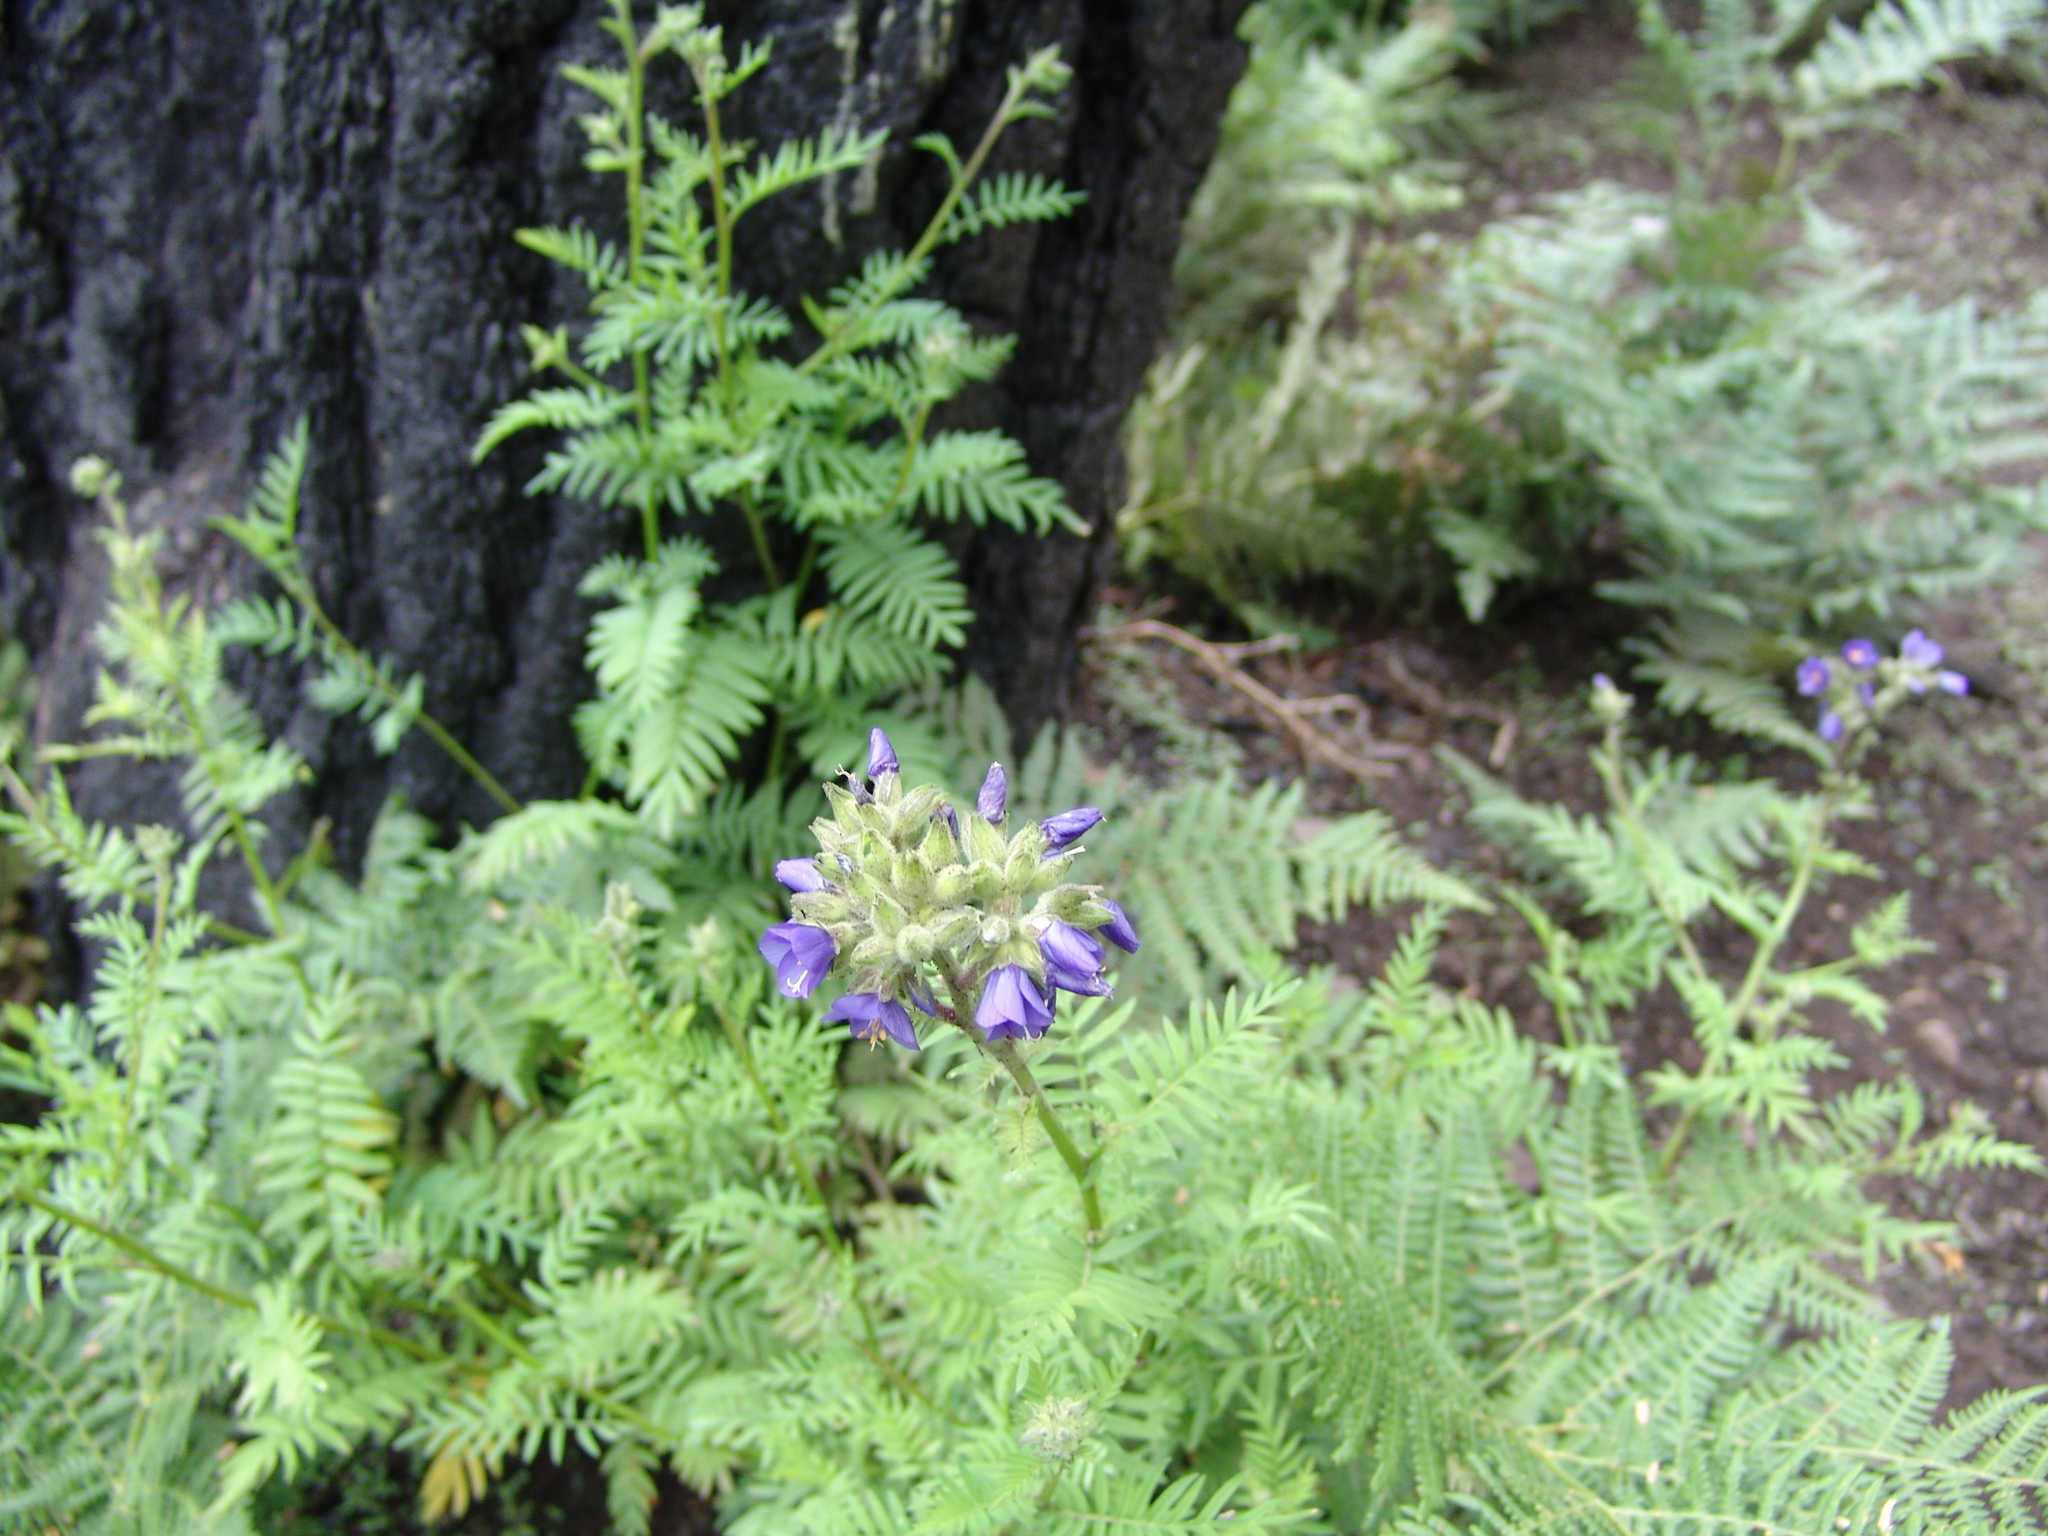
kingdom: Plantae
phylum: Tracheophyta
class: Magnoliopsida
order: Ericales
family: Polemoniaceae
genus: Polemonium
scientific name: Polemonium foliosissimum
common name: Leafy jacob's-ladder
